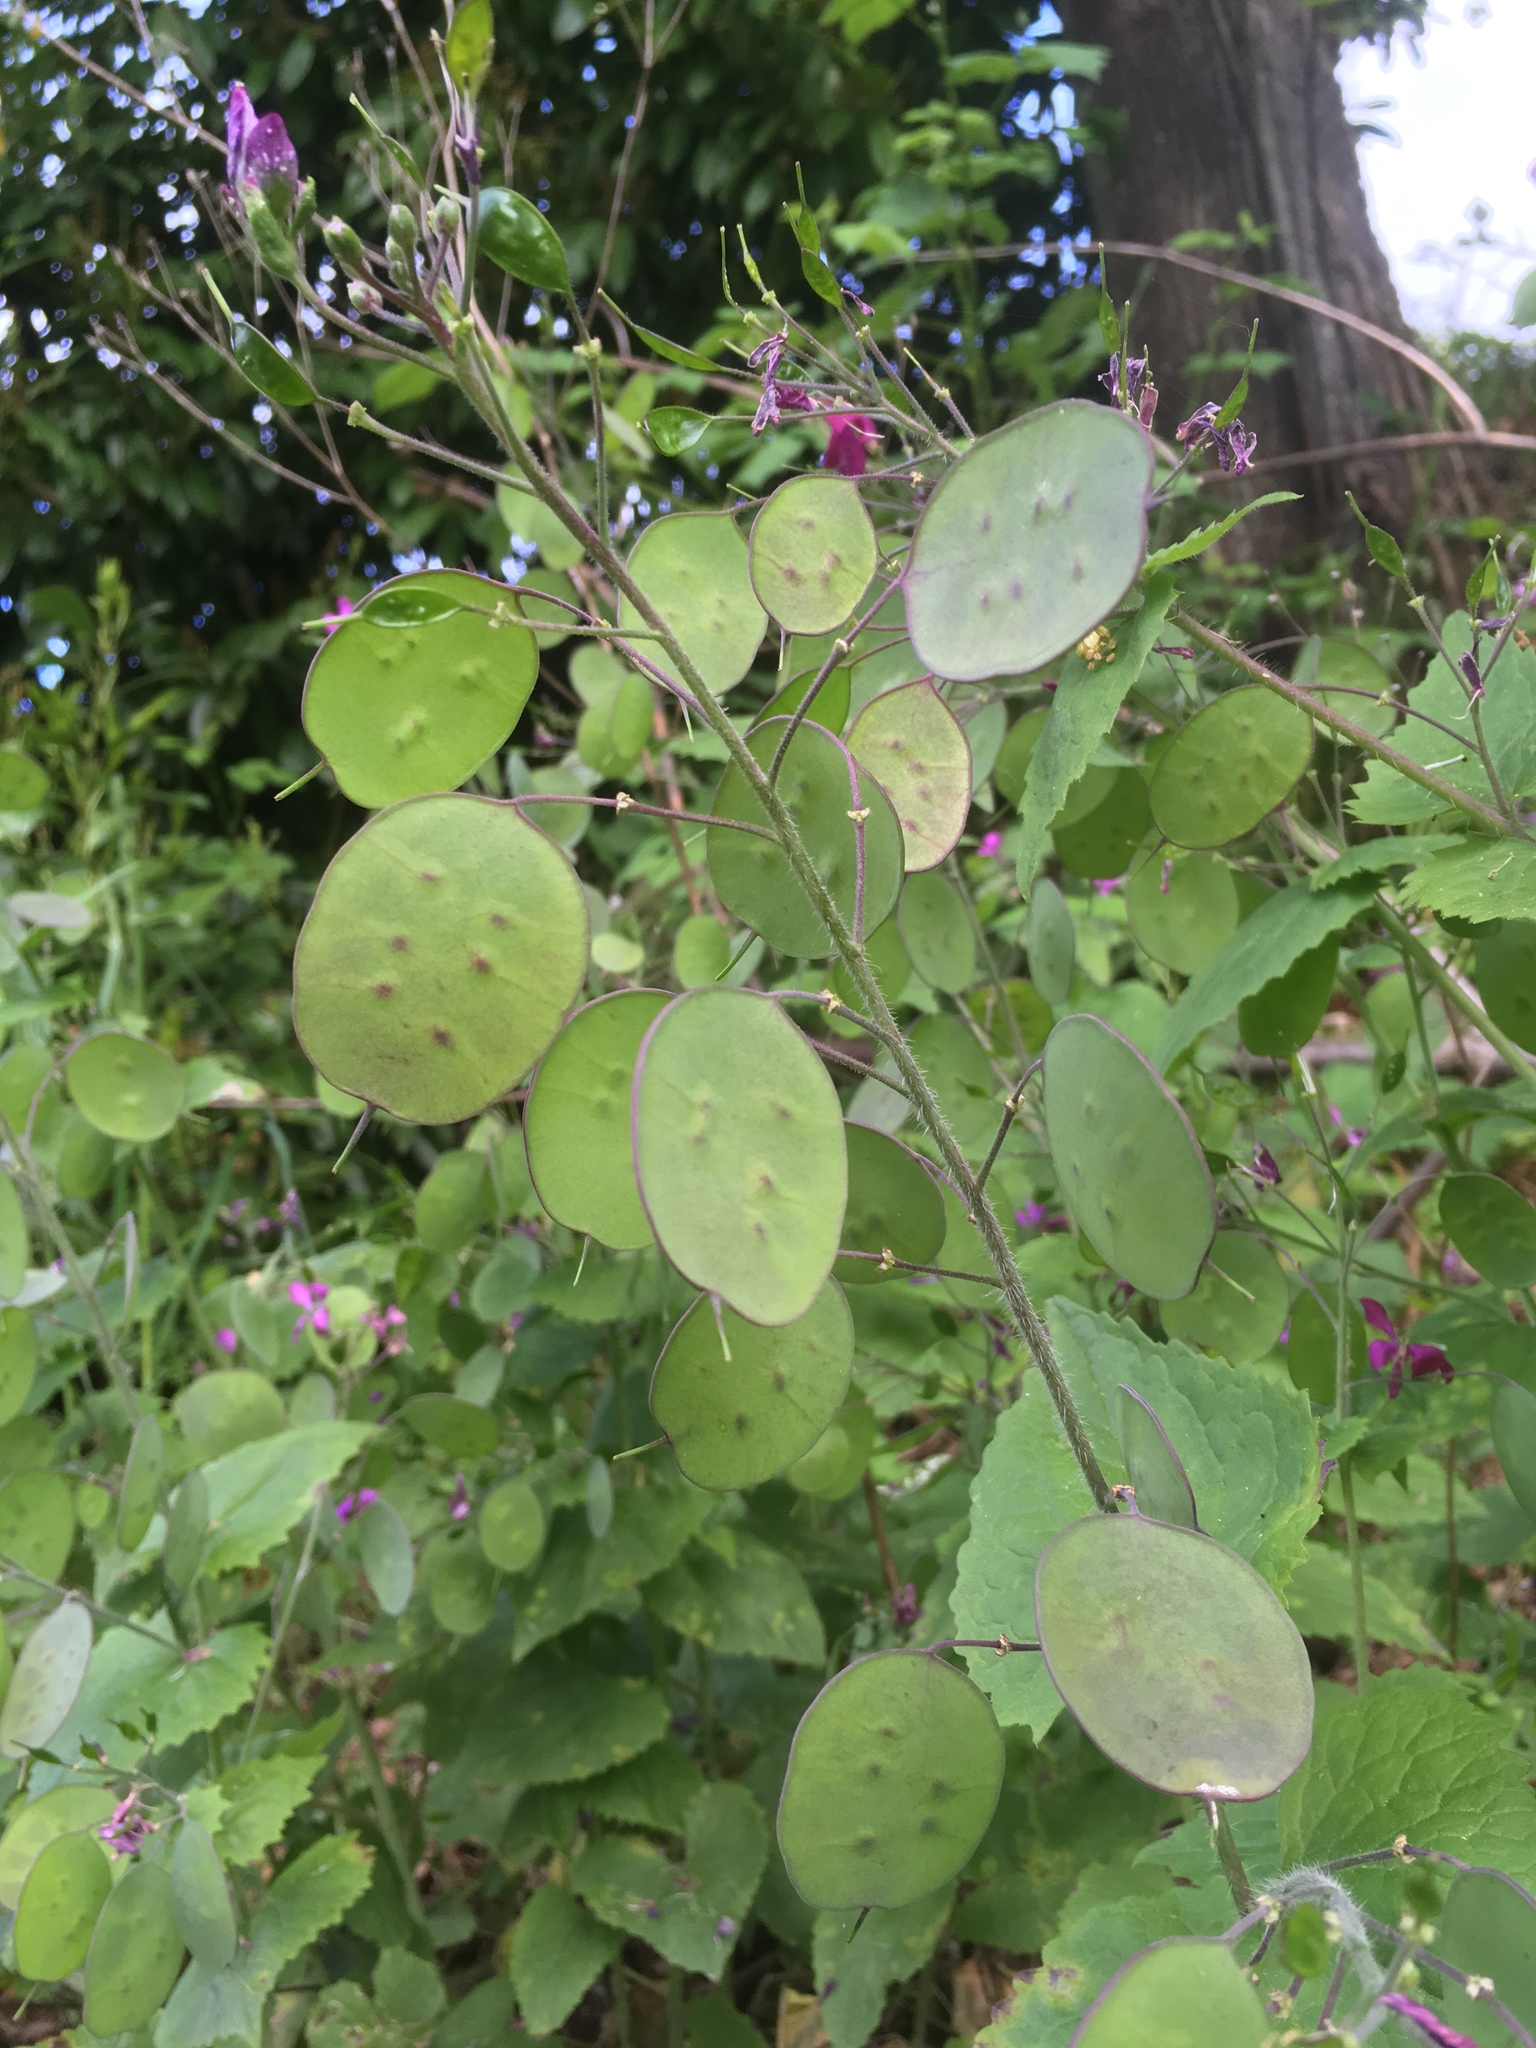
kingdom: Plantae
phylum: Tracheophyta
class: Magnoliopsida
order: Brassicales
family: Brassicaceae
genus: Lunaria
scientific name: Lunaria annua
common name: Honesty
